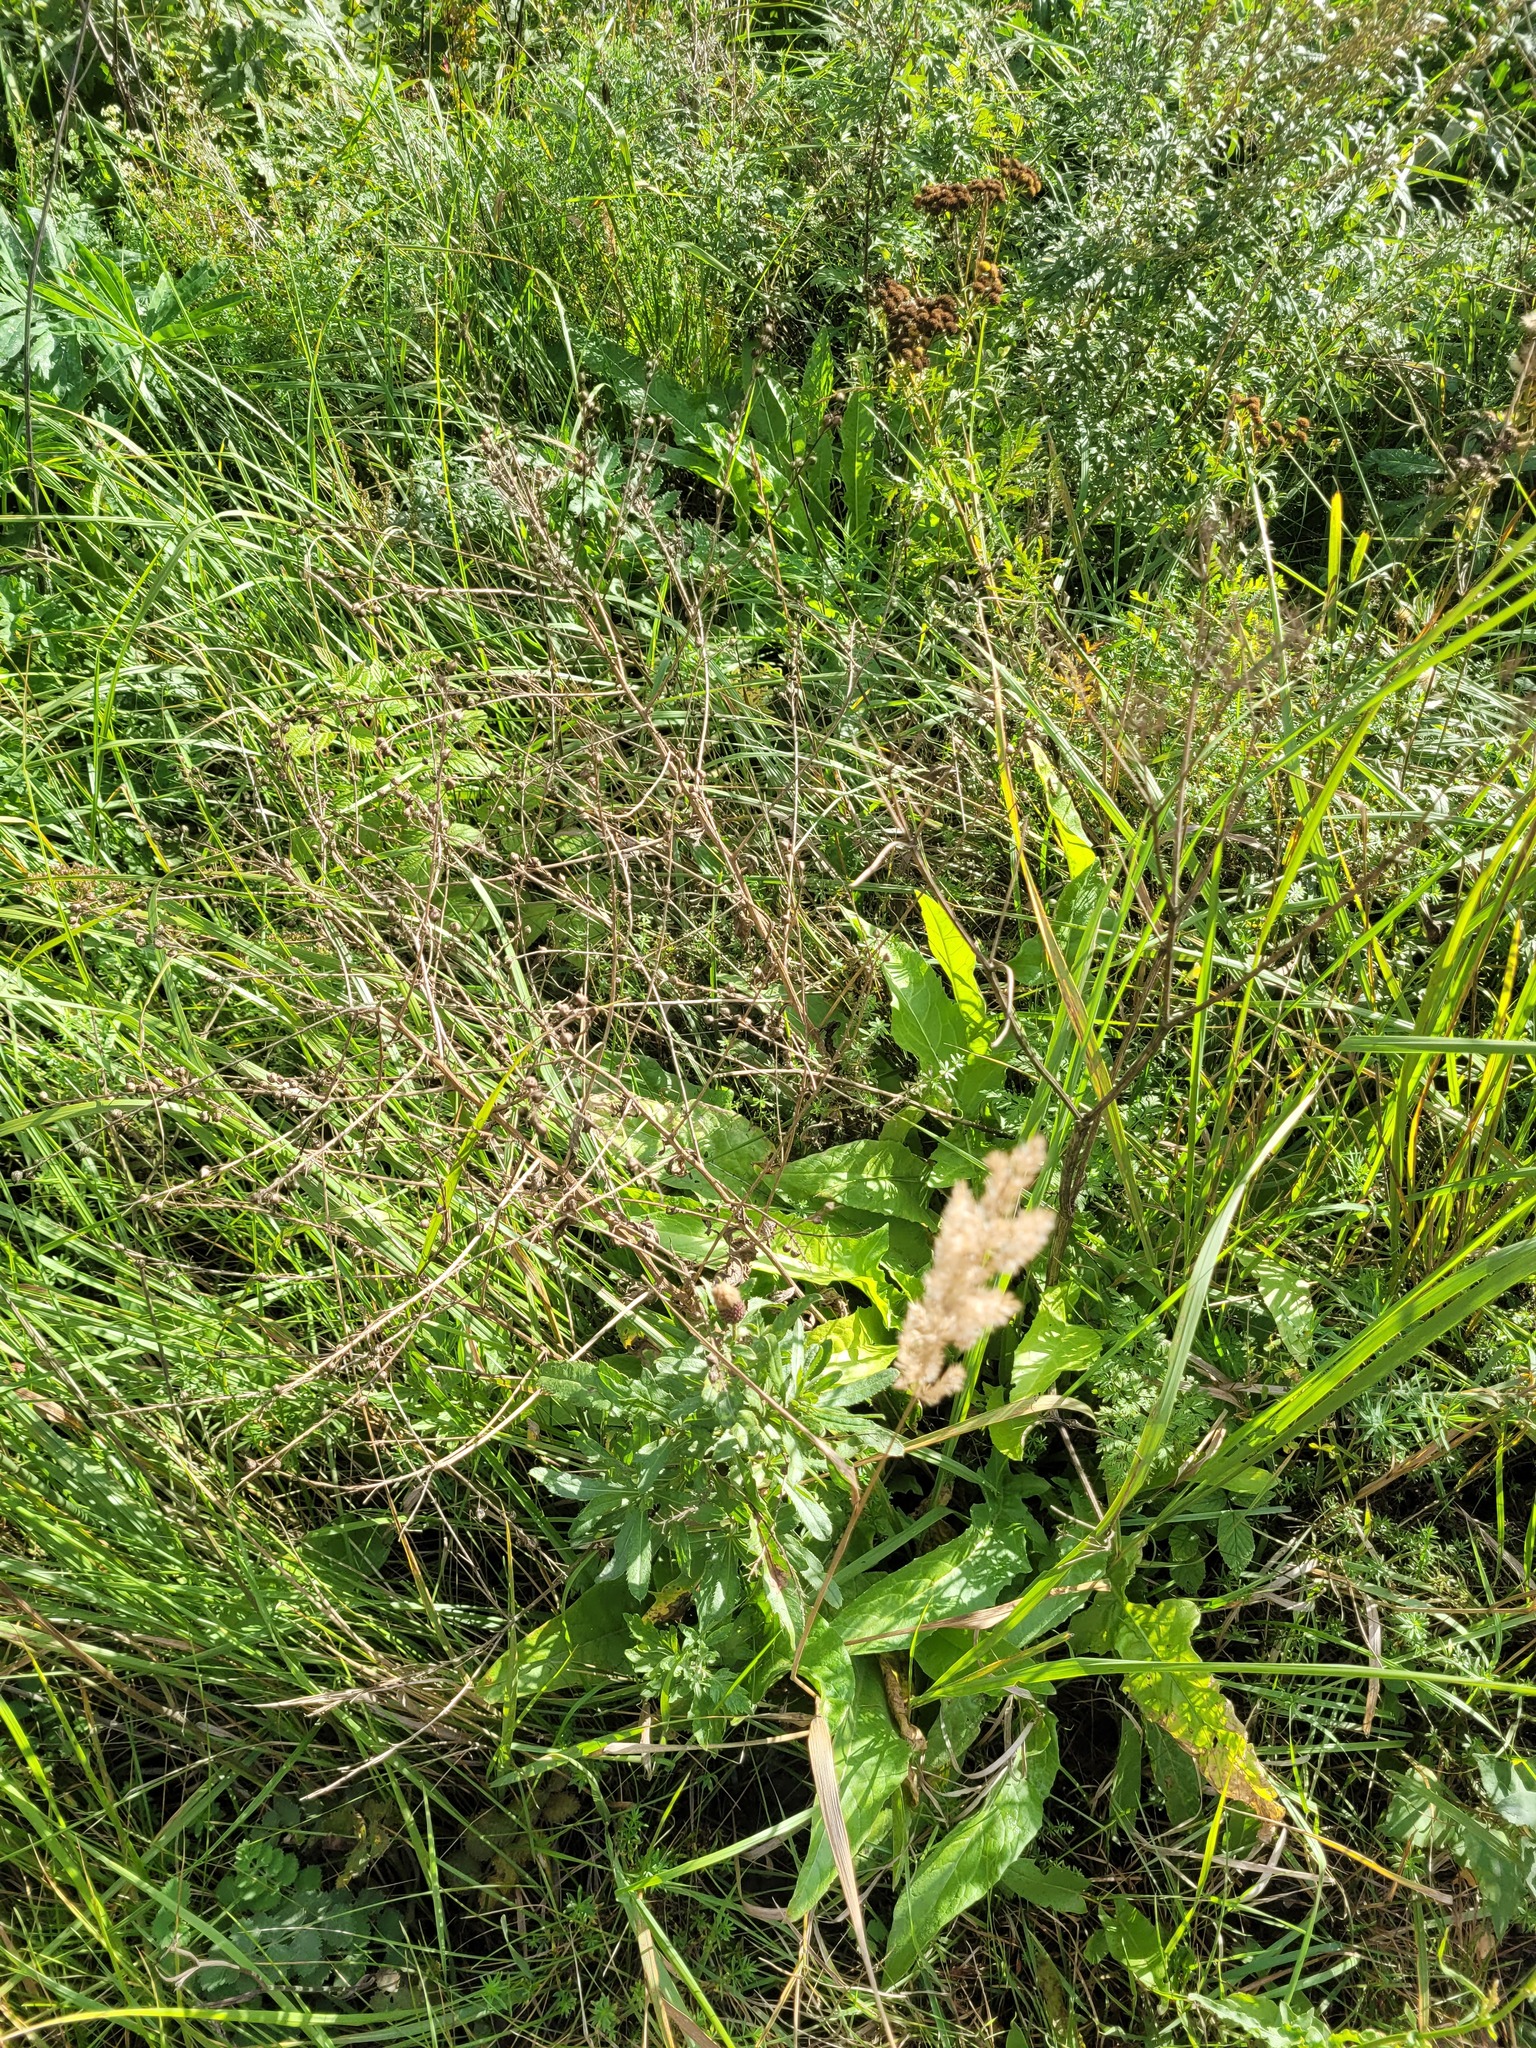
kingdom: Plantae
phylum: Tracheophyta
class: Magnoliopsida
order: Brassicales
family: Brassicaceae
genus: Bunias
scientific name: Bunias orientalis
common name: Warty-cabbage
